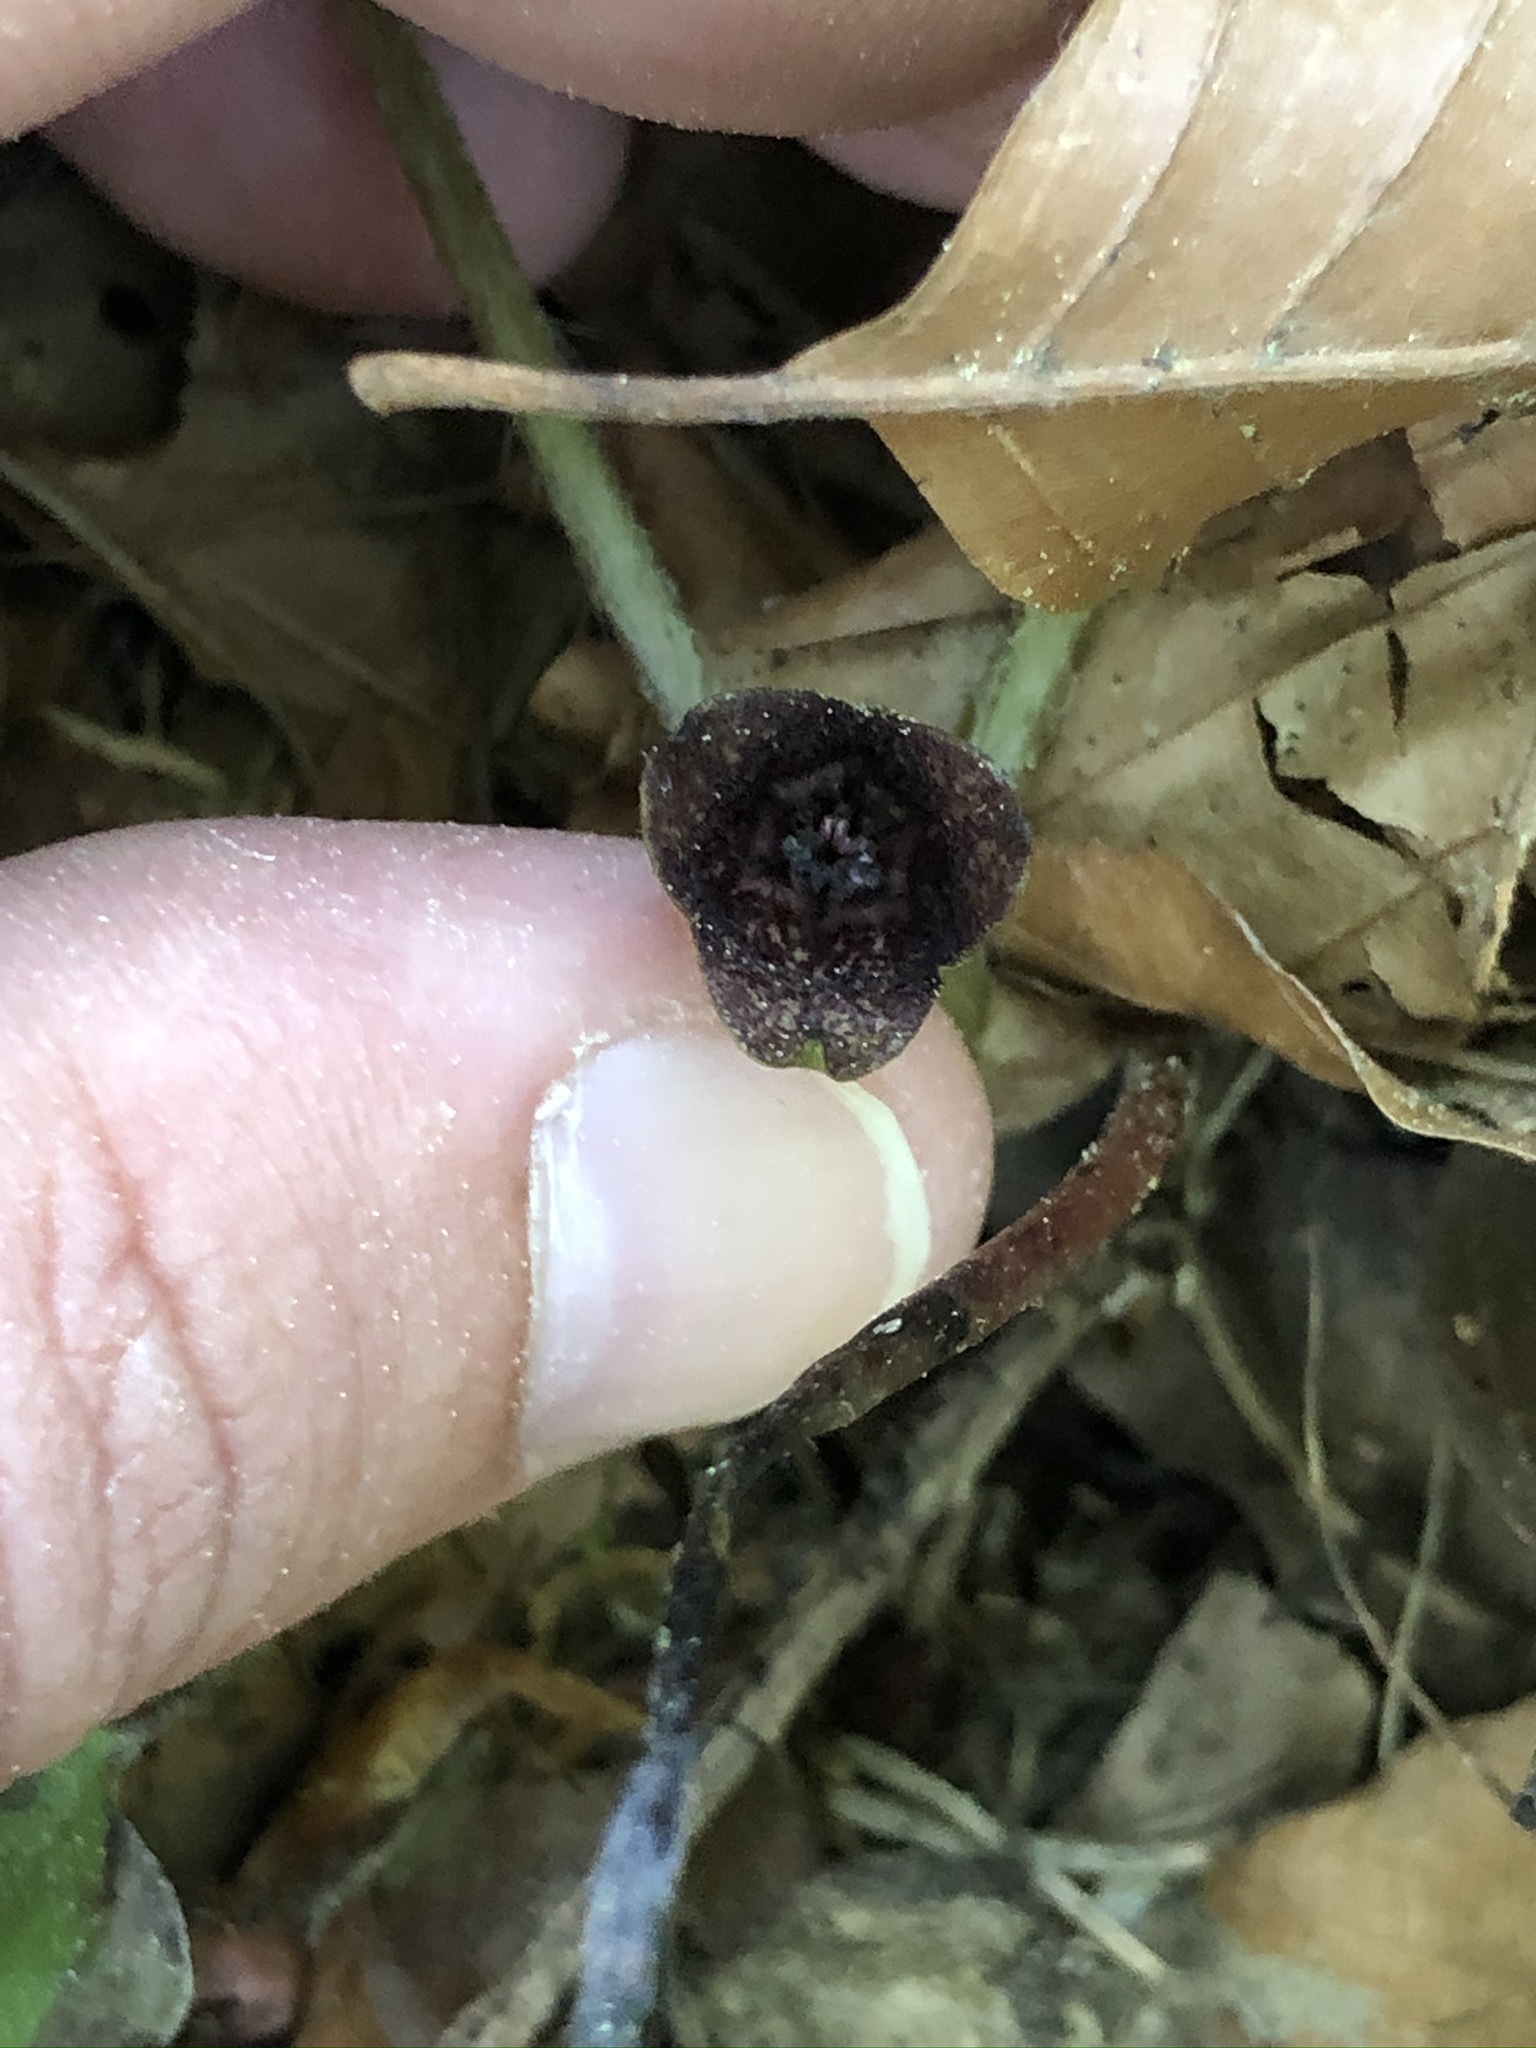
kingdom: Plantae
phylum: Tracheophyta
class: Magnoliopsida
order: Piperales
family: Aristolochiaceae
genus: Asarum
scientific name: Asarum europaeum
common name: Asarabacca
